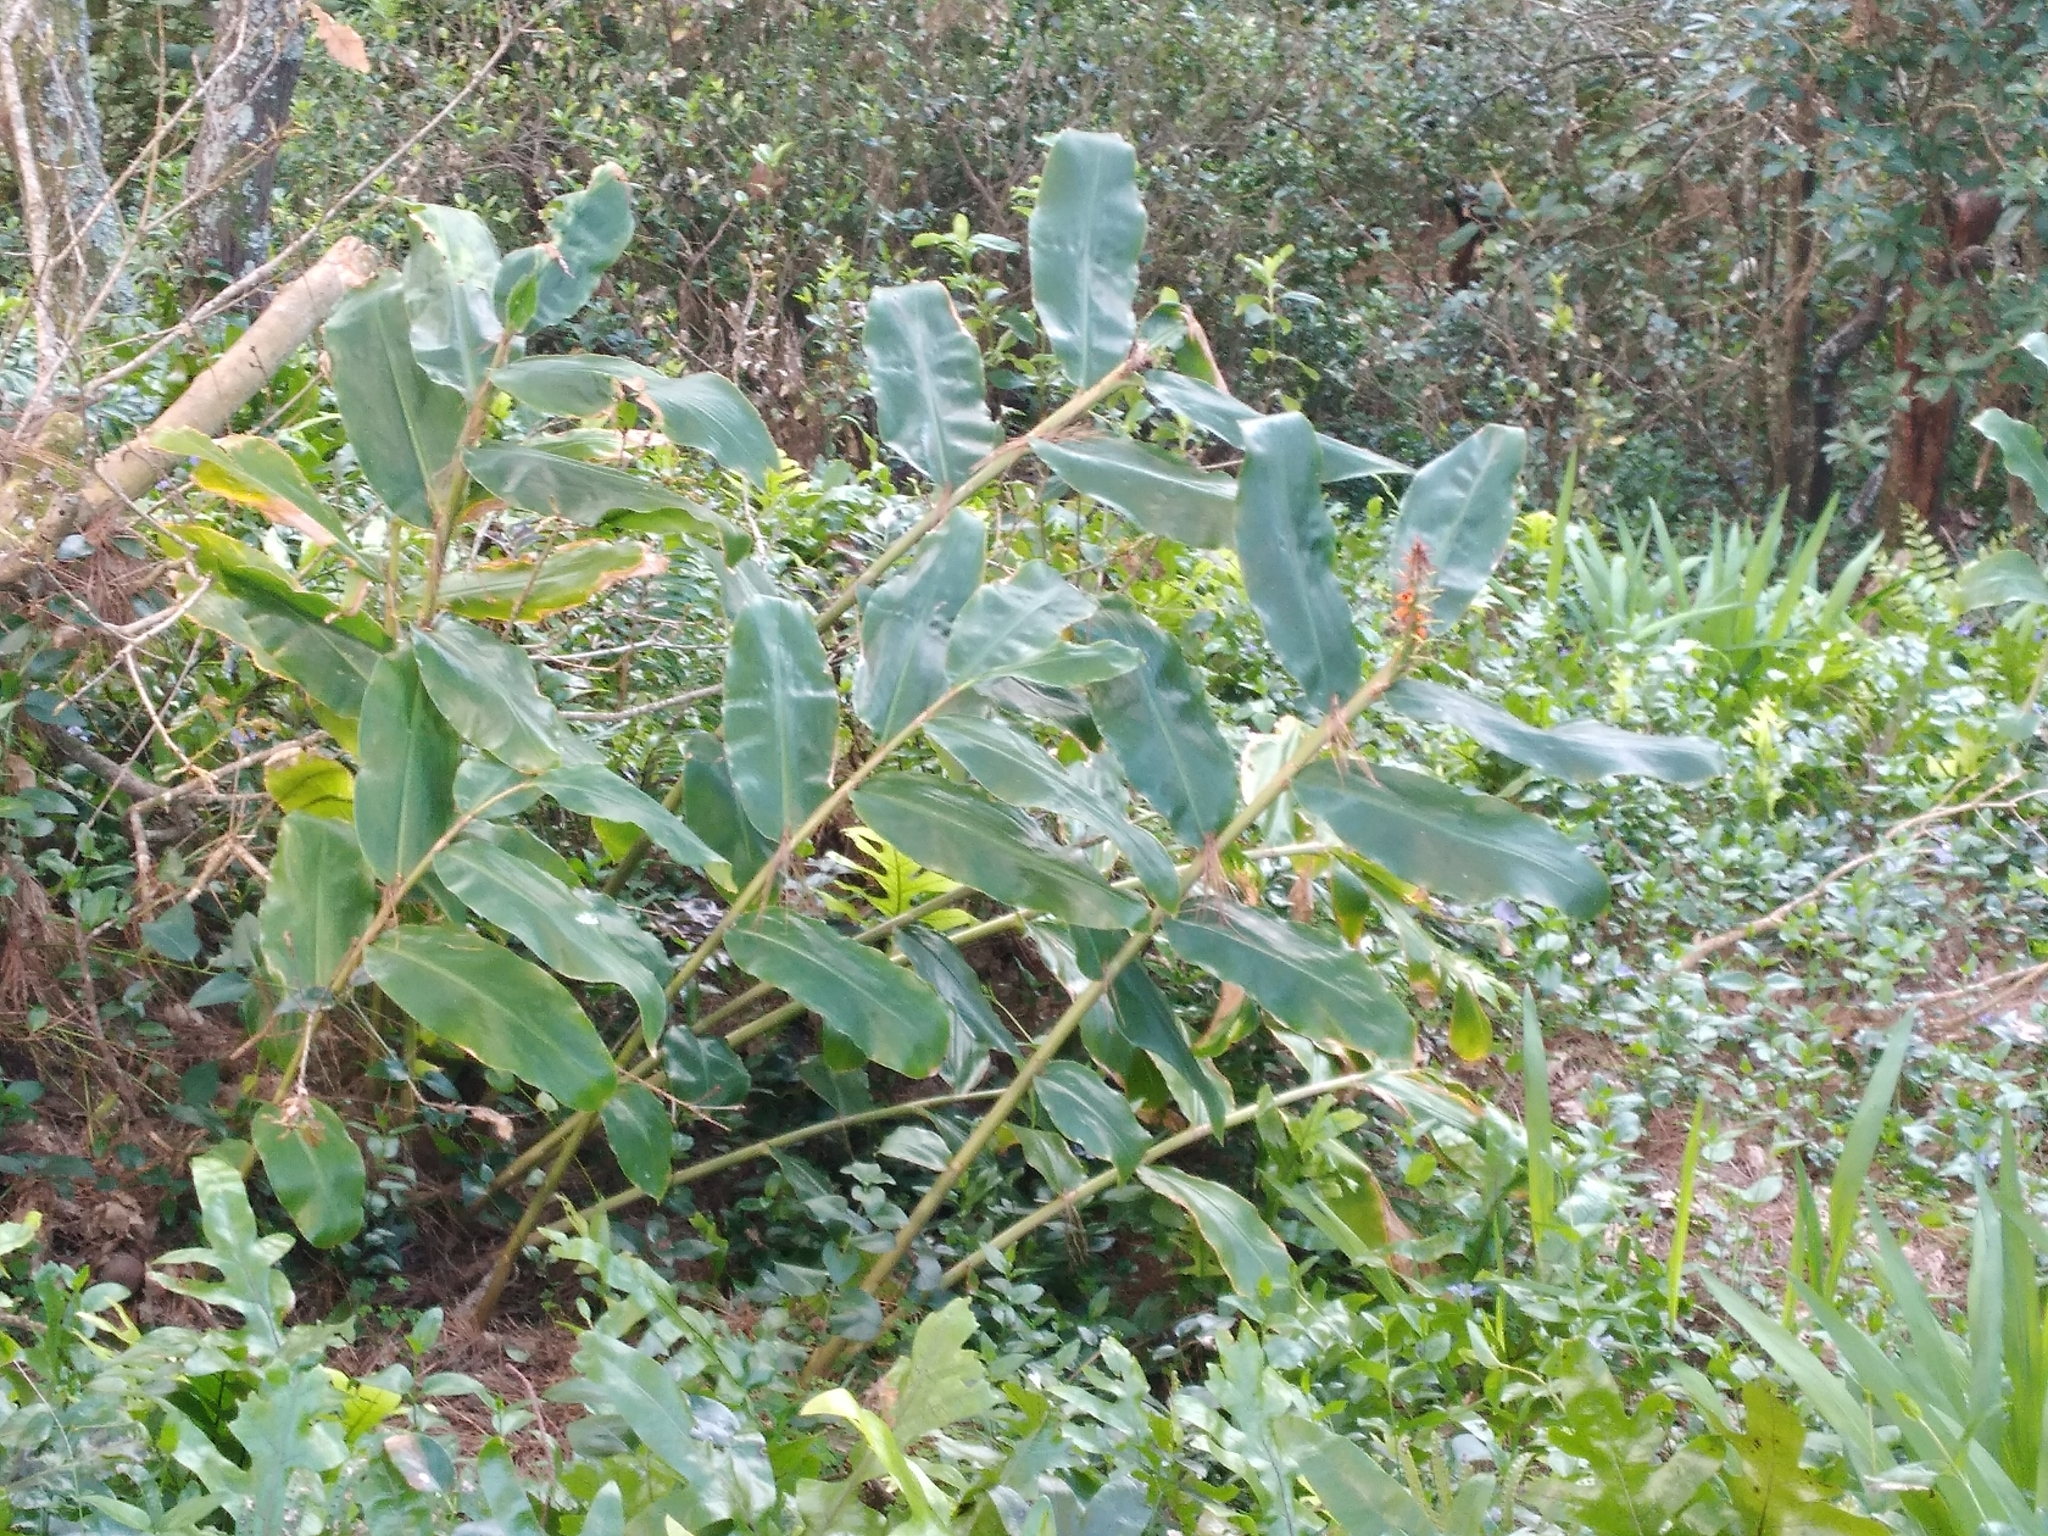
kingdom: Plantae
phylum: Tracheophyta
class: Liliopsida
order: Zingiberales
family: Zingiberaceae
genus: Hedychium
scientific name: Hedychium gardnerianum
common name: Himalayan ginger
